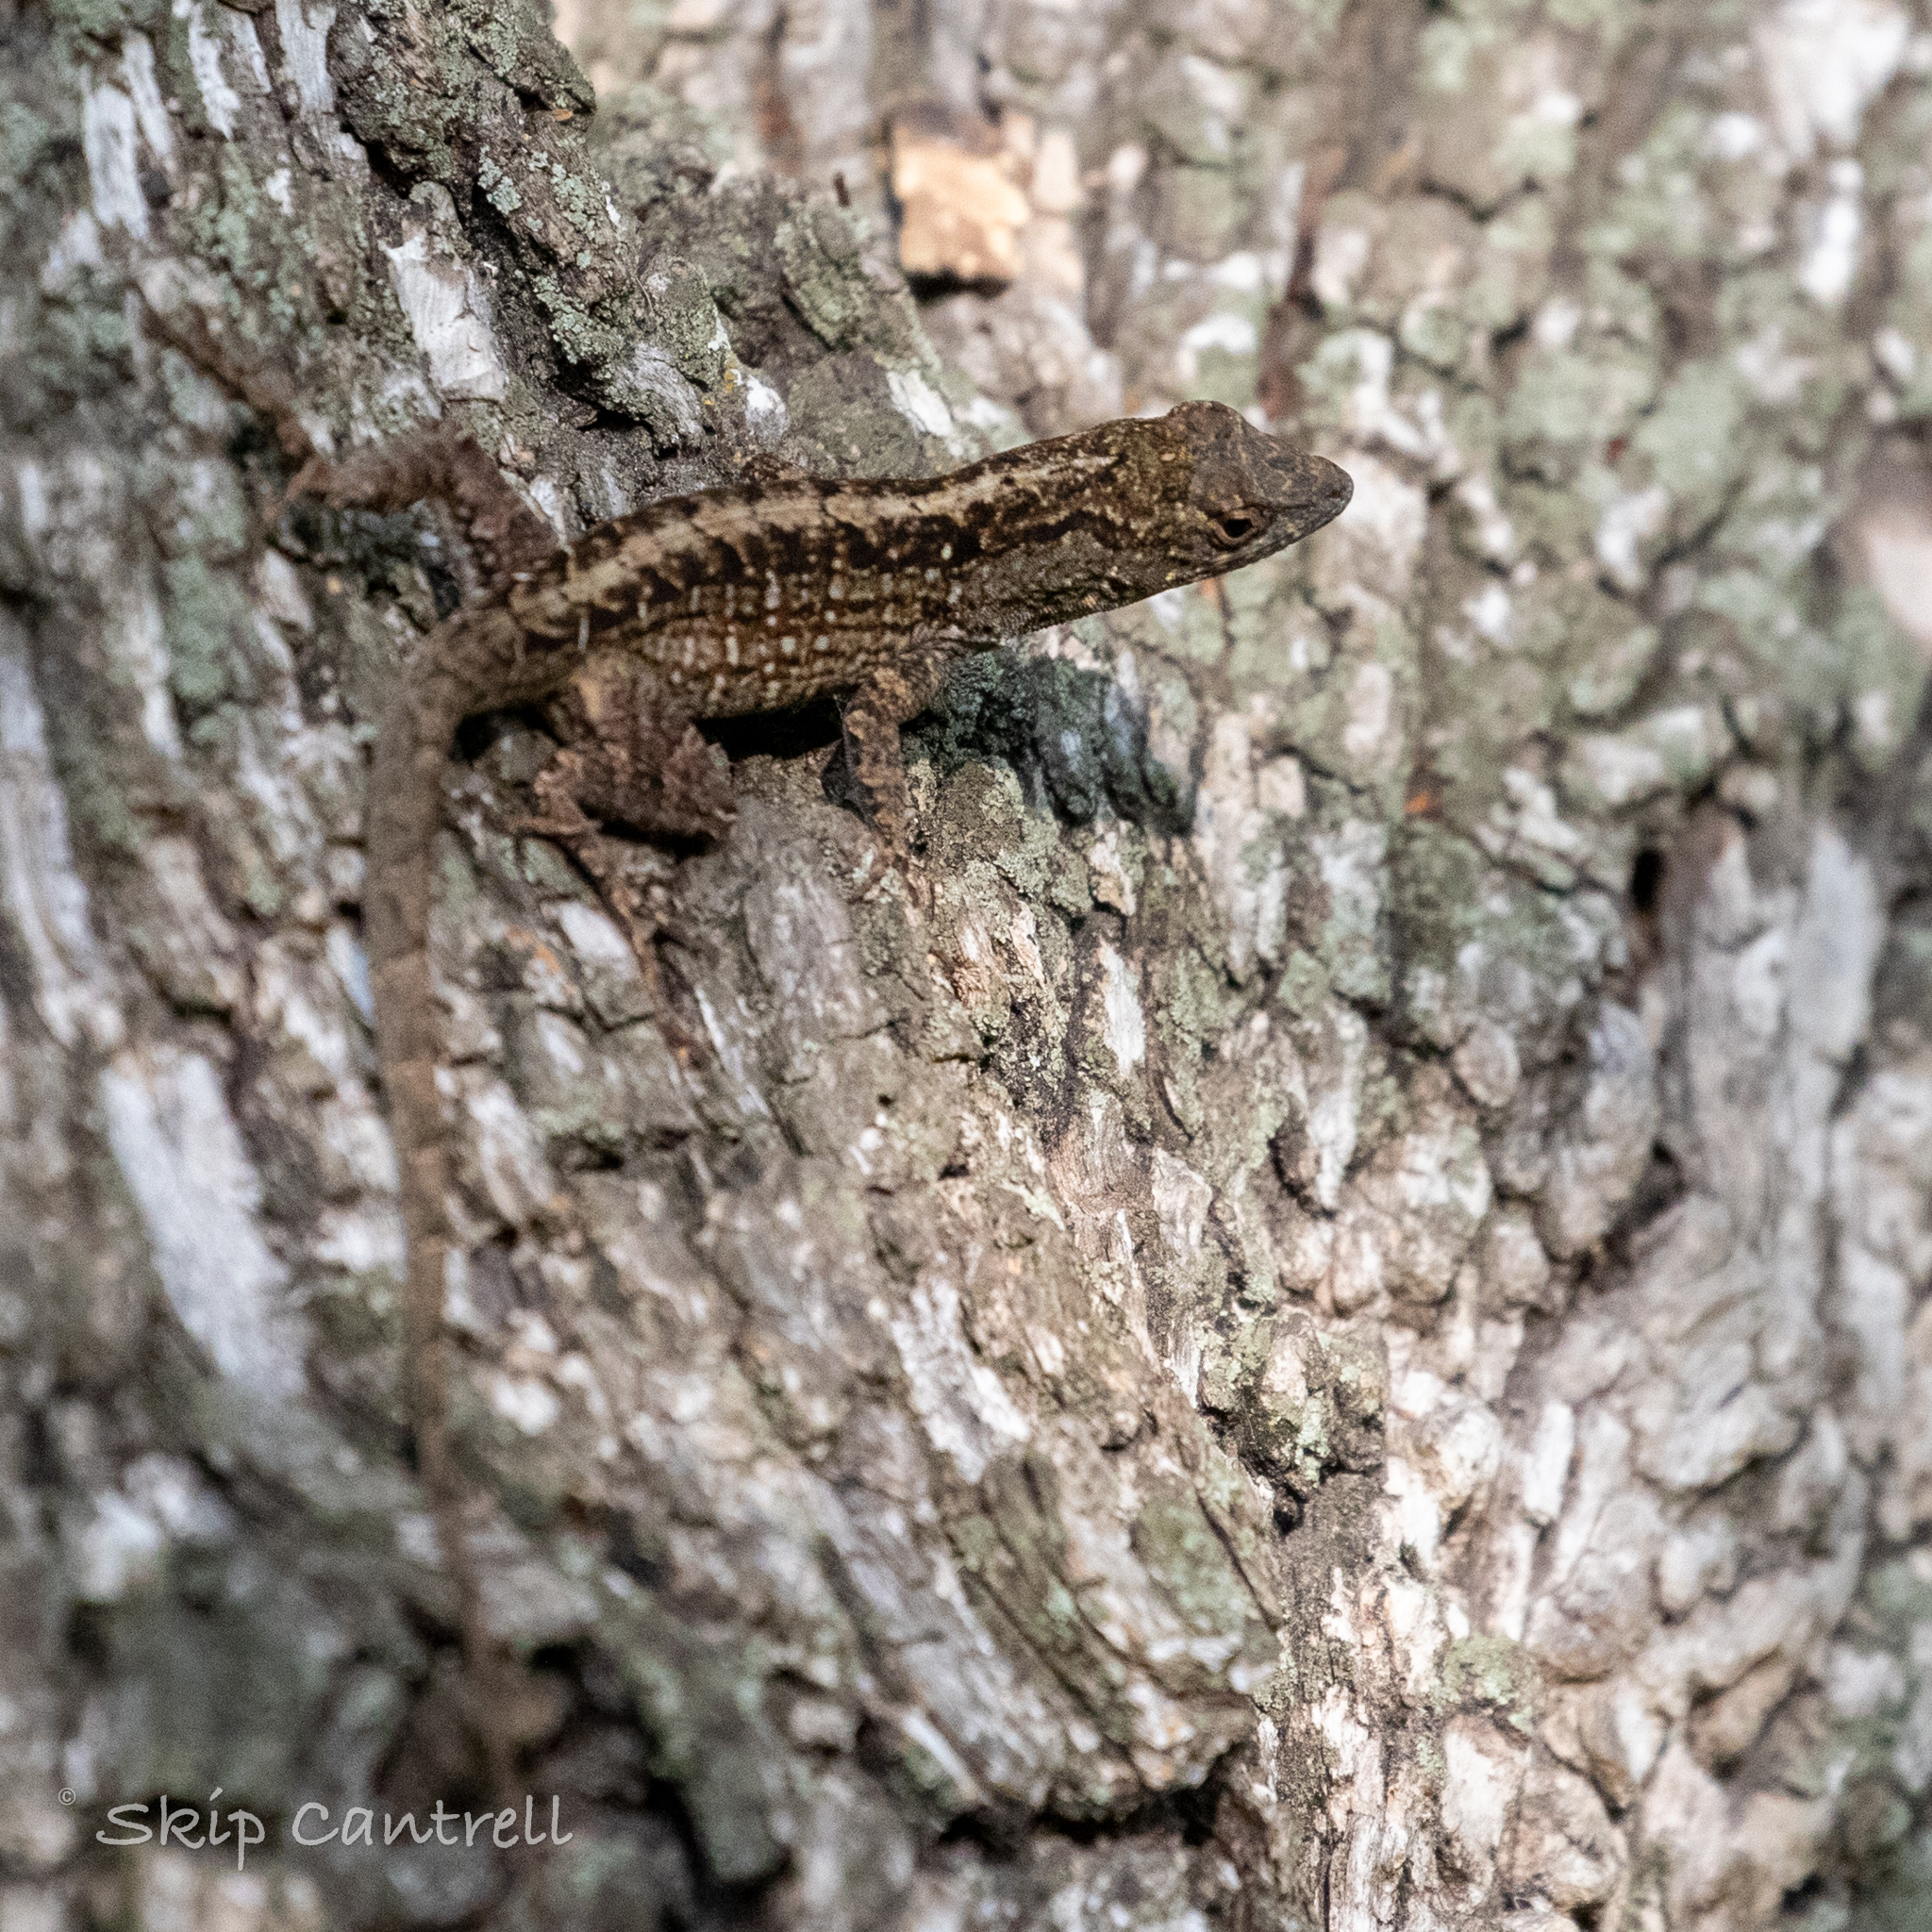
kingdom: Animalia
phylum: Chordata
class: Squamata
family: Dactyloidae
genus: Anolis
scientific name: Anolis sagrei
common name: Brown anole
